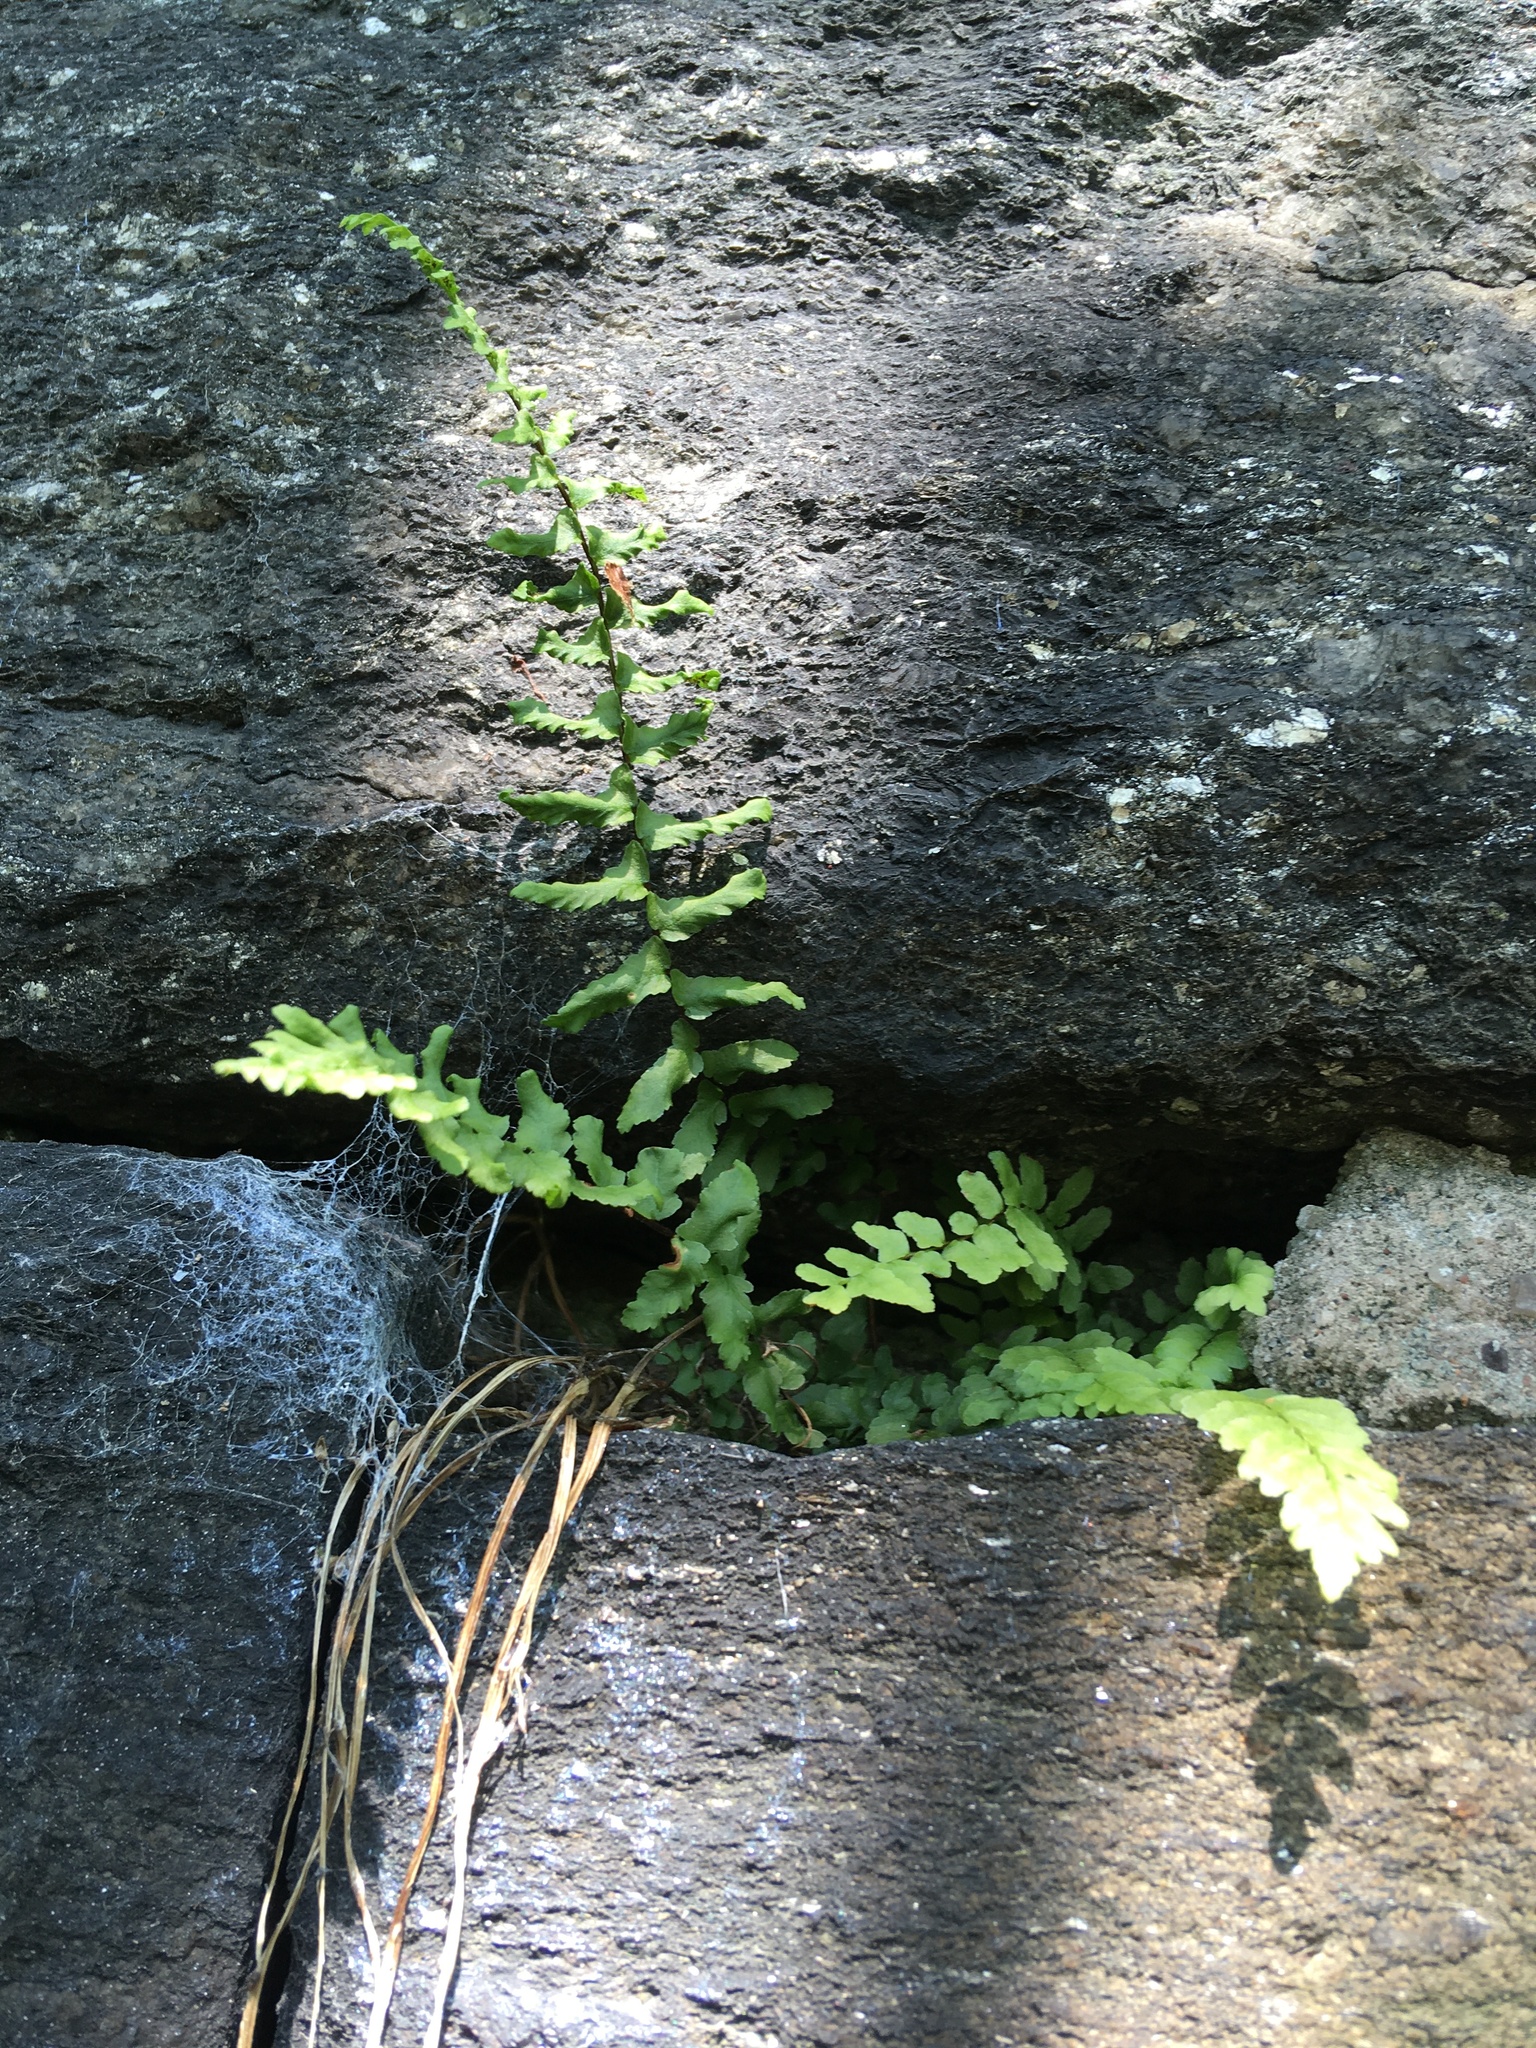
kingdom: Plantae
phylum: Tracheophyta
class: Polypodiopsida
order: Polypodiales
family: Aspleniaceae
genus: Asplenium
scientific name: Asplenium platyneuron
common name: Ebony spleenwort
